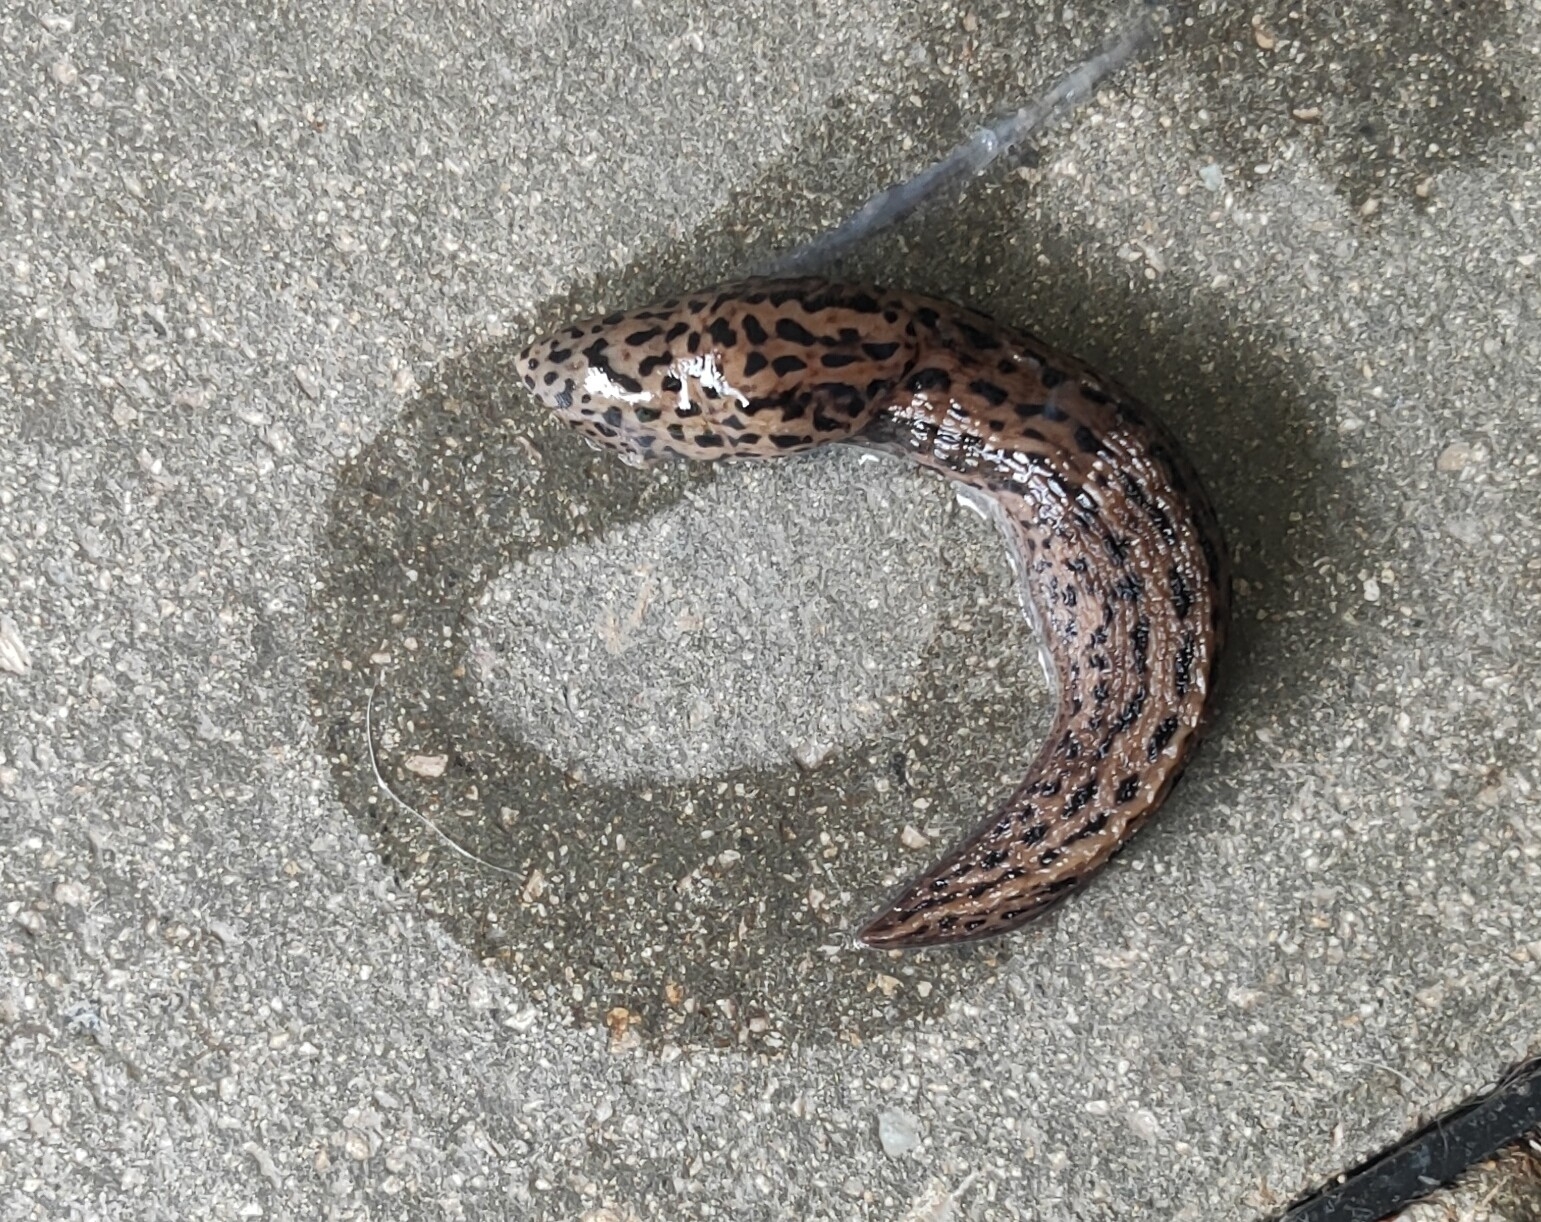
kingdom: Animalia
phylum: Mollusca
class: Gastropoda
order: Stylommatophora
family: Limacidae
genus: Limax
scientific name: Limax maximus
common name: Great grey slug
